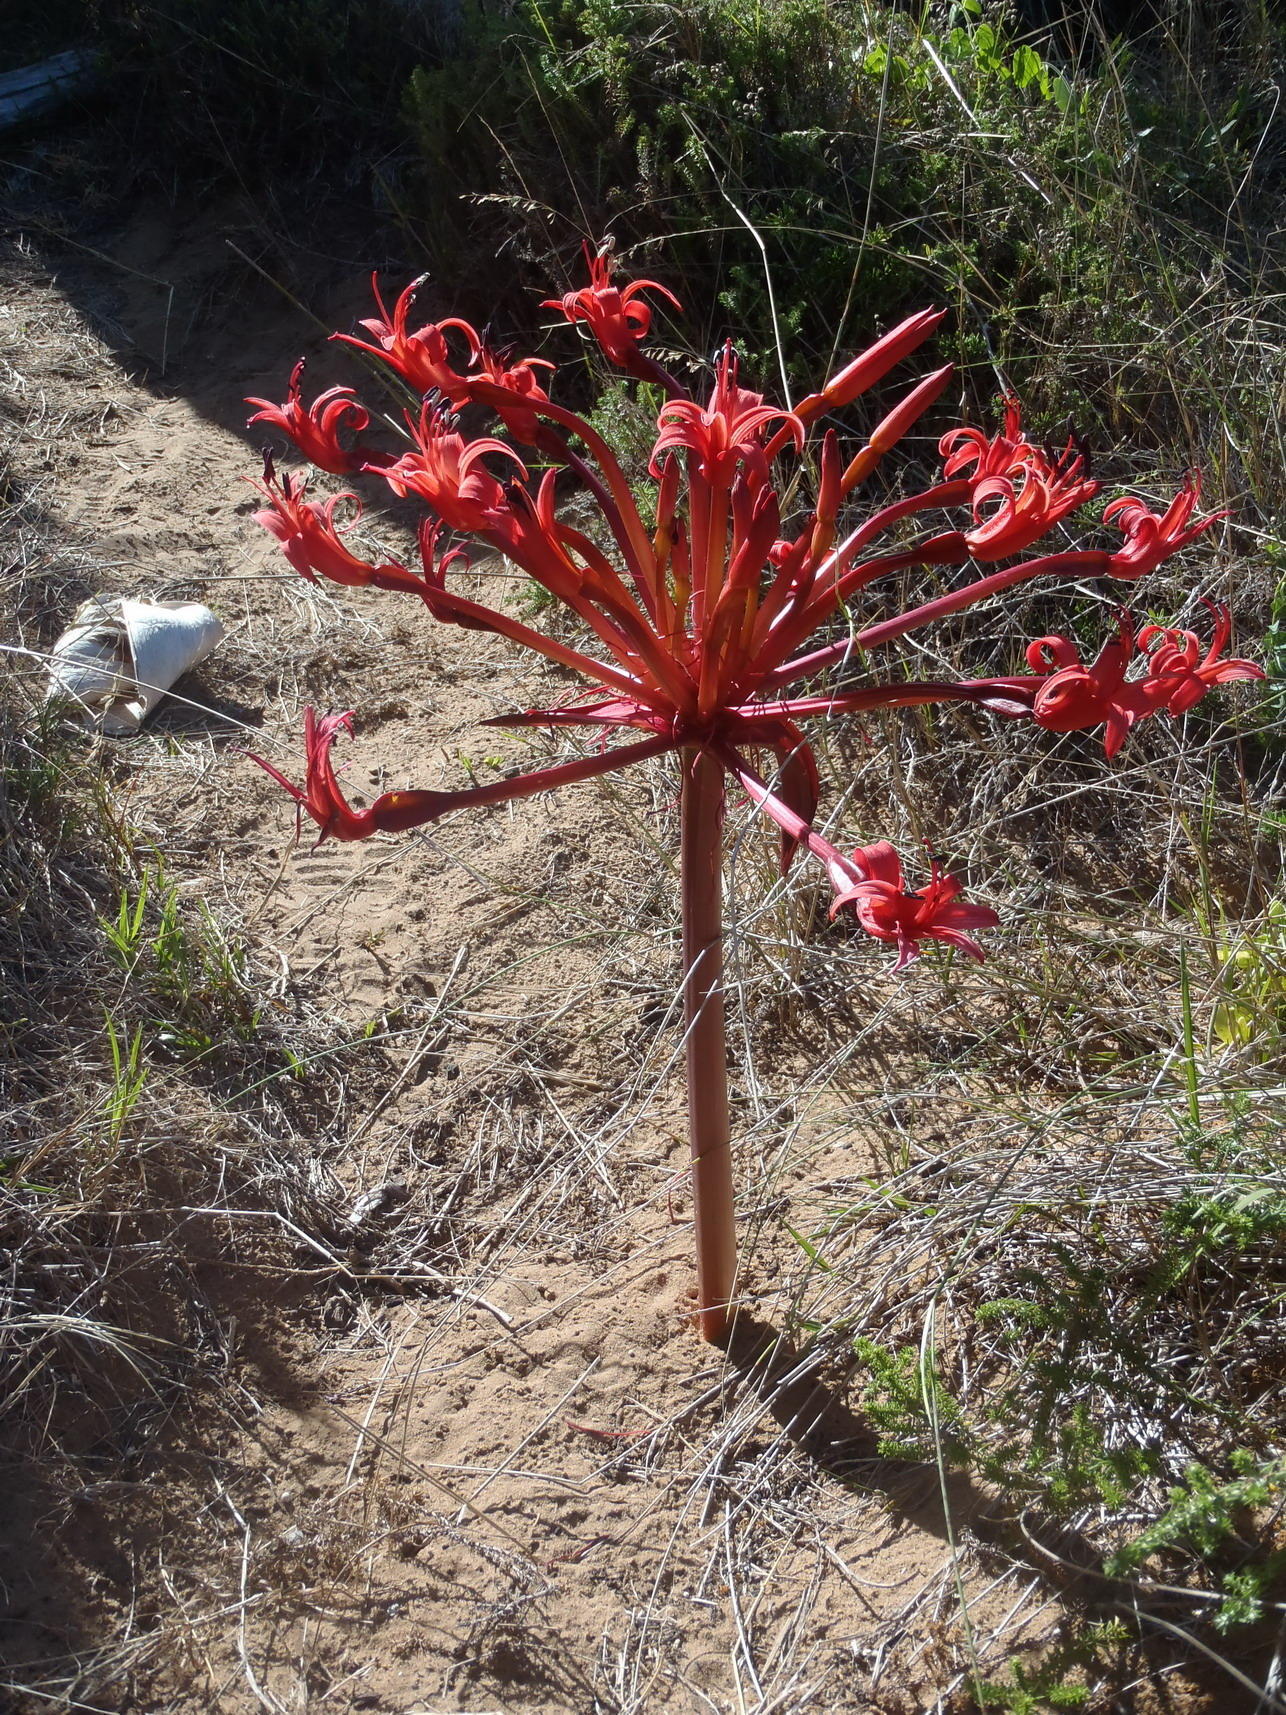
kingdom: Plantae
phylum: Tracheophyta
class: Liliopsida
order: Asparagales
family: Amaryllidaceae
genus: Brunsvigia
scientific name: Brunsvigia orientalis
